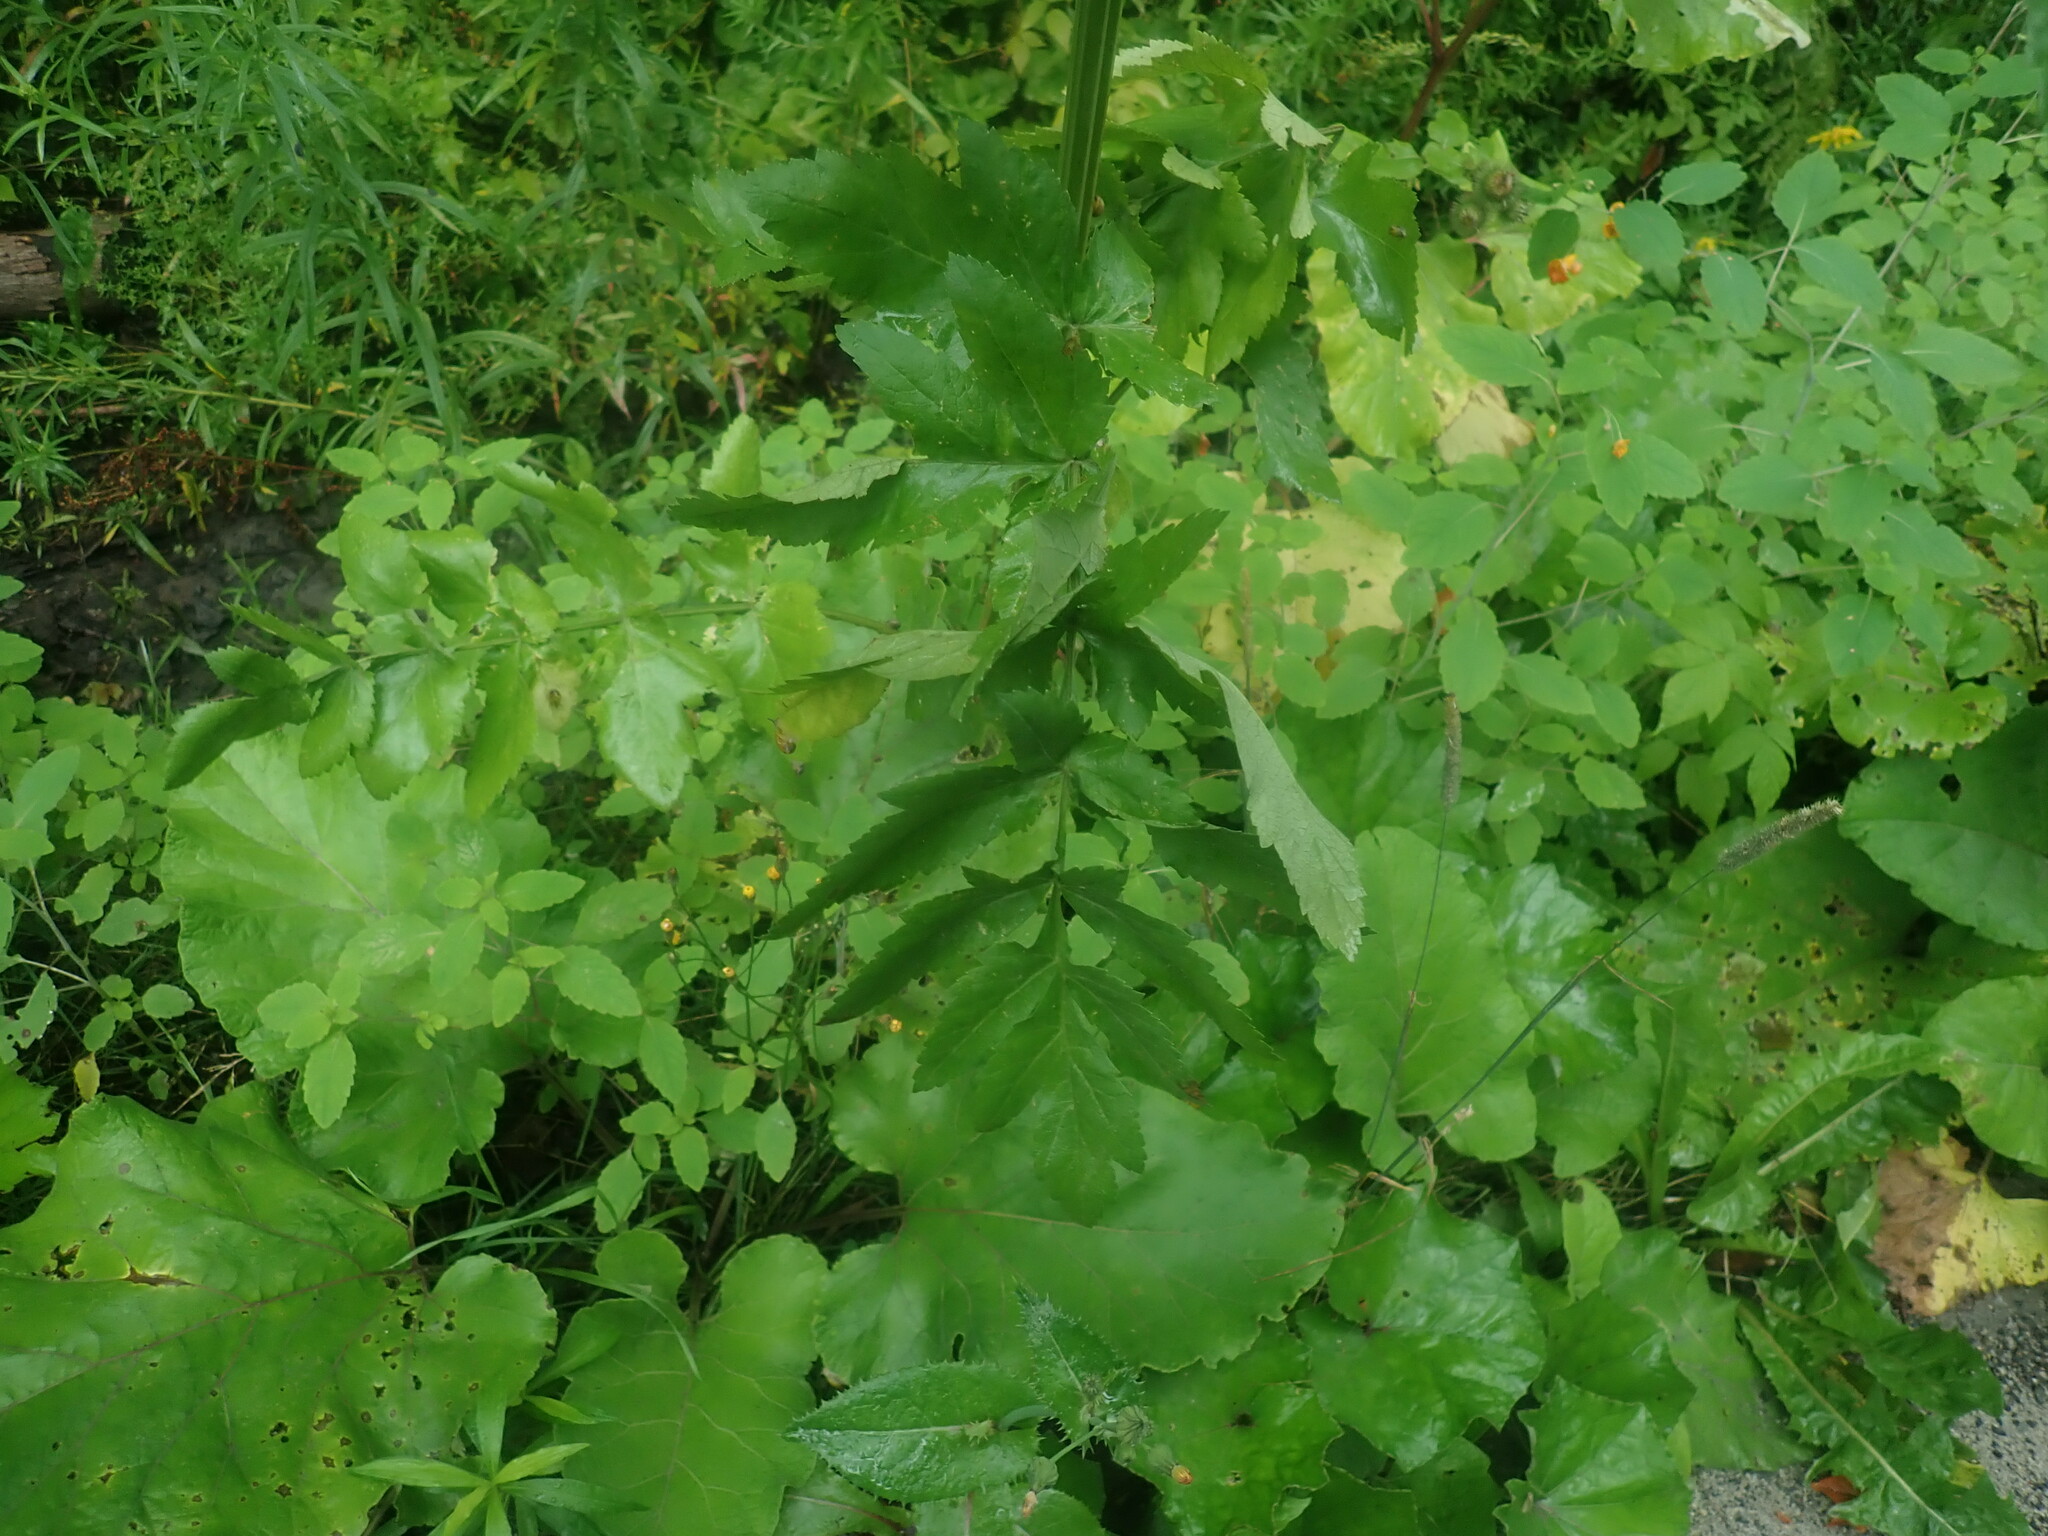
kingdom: Plantae
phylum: Tracheophyta
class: Magnoliopsida
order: Apiales
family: Apiaceae
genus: Pastinaca
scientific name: Pastinaca sativa
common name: Wild parsnip
